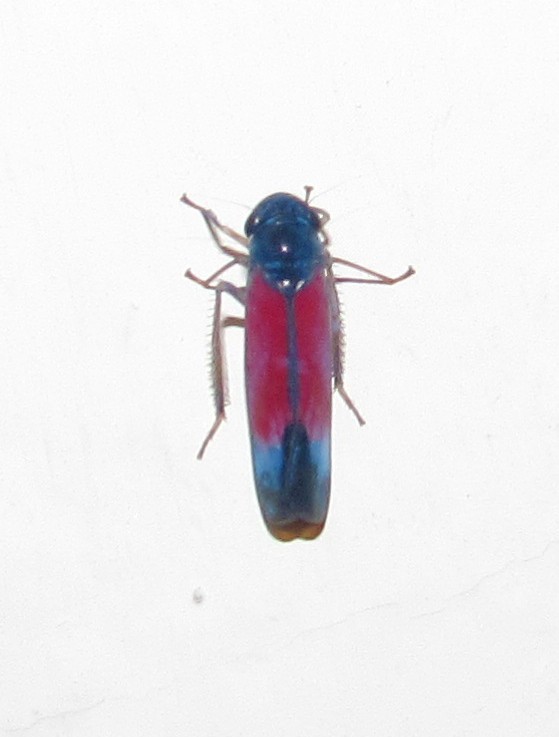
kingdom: Animalia
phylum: Arthropoda
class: Insecta
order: Hemiptera
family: Cicadellidae
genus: Pawiloma
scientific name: Pawiloma ancora
